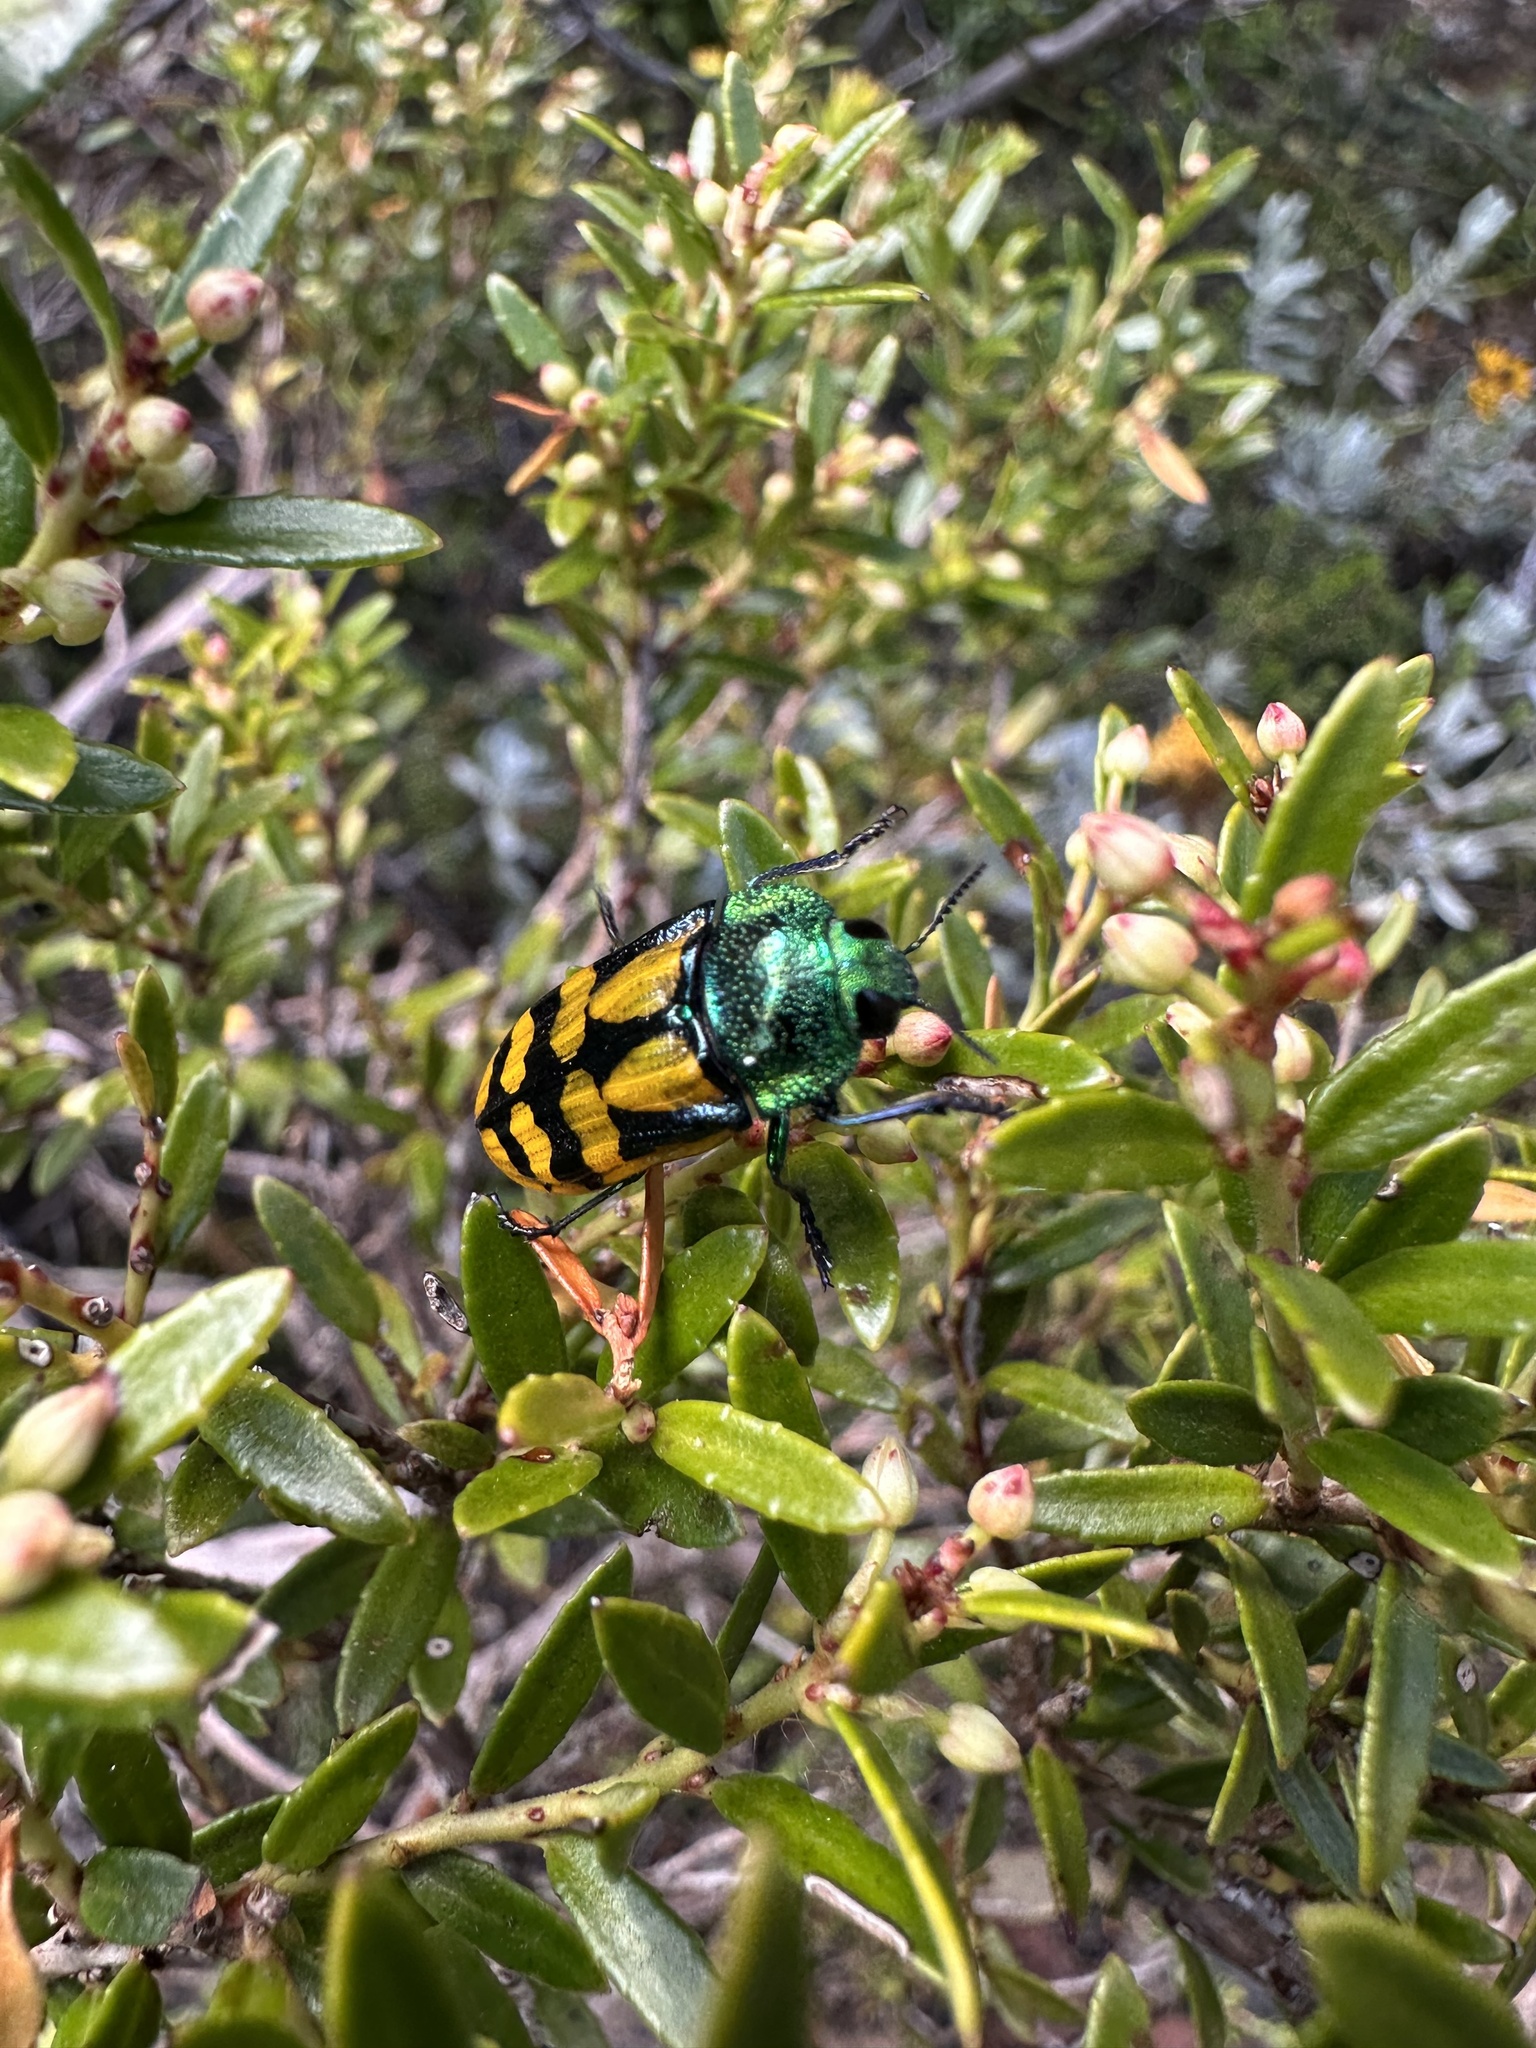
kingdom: Animalia
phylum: Arthropoda
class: Insecta
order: Coleoptera
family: Buprestidae
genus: Conognatha
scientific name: Conognatha viridiventris
